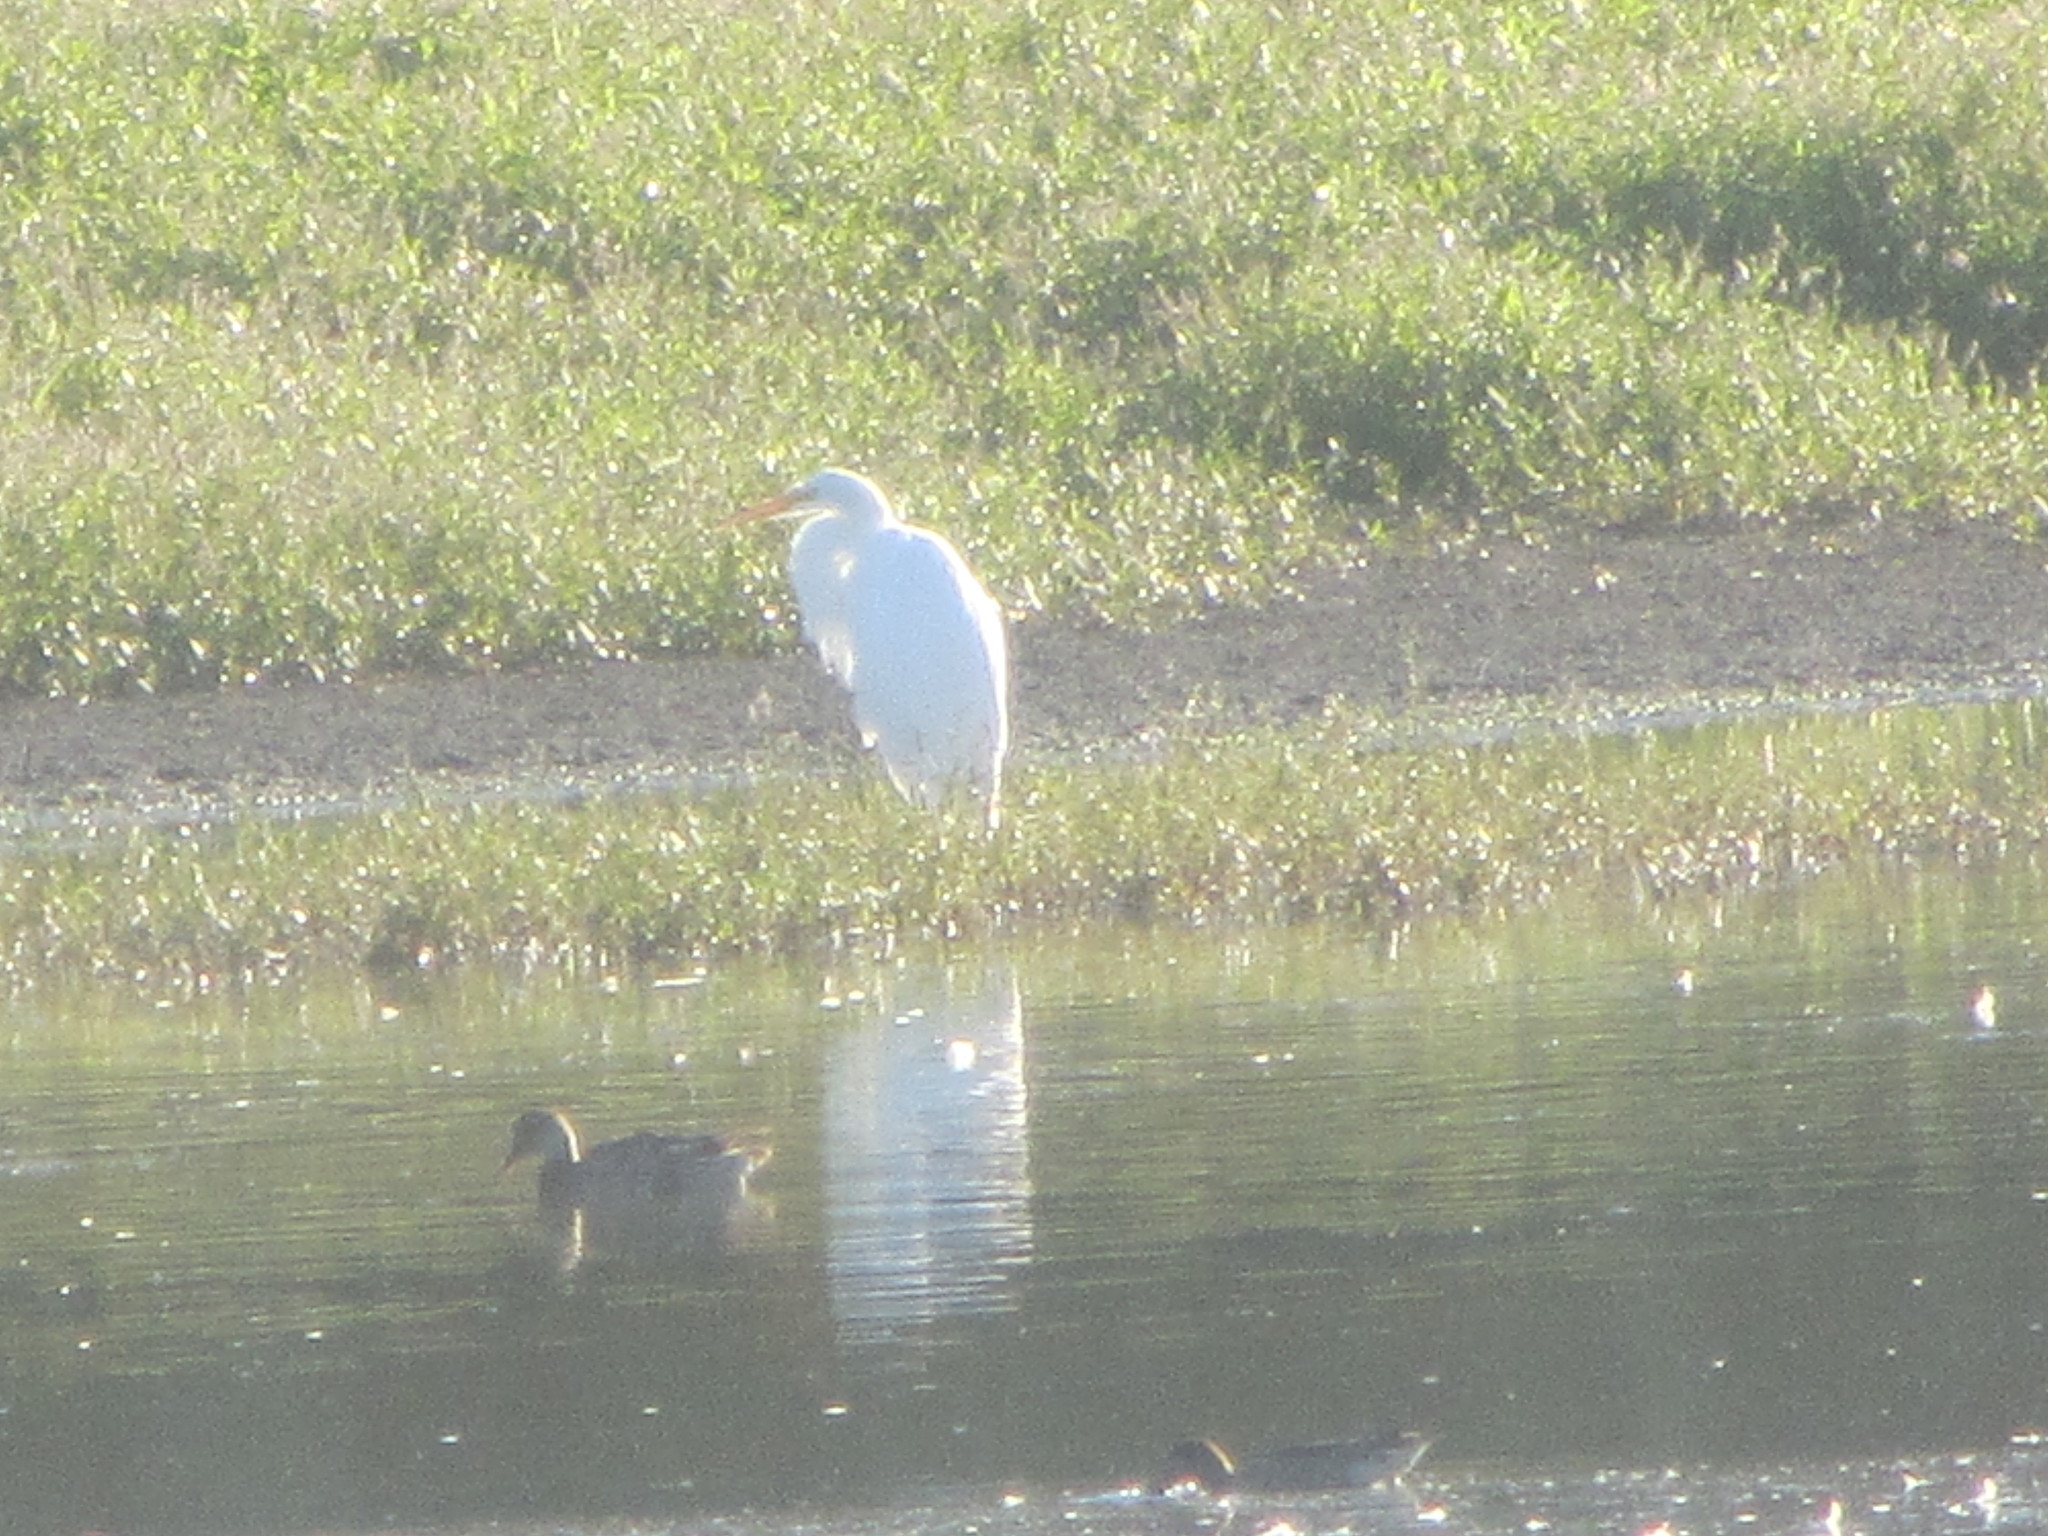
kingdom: Animalia
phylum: Chordata
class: Aves
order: Pelecaniformes
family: Ardeidae
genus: Ardea
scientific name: Ardea alba
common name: Great egret
